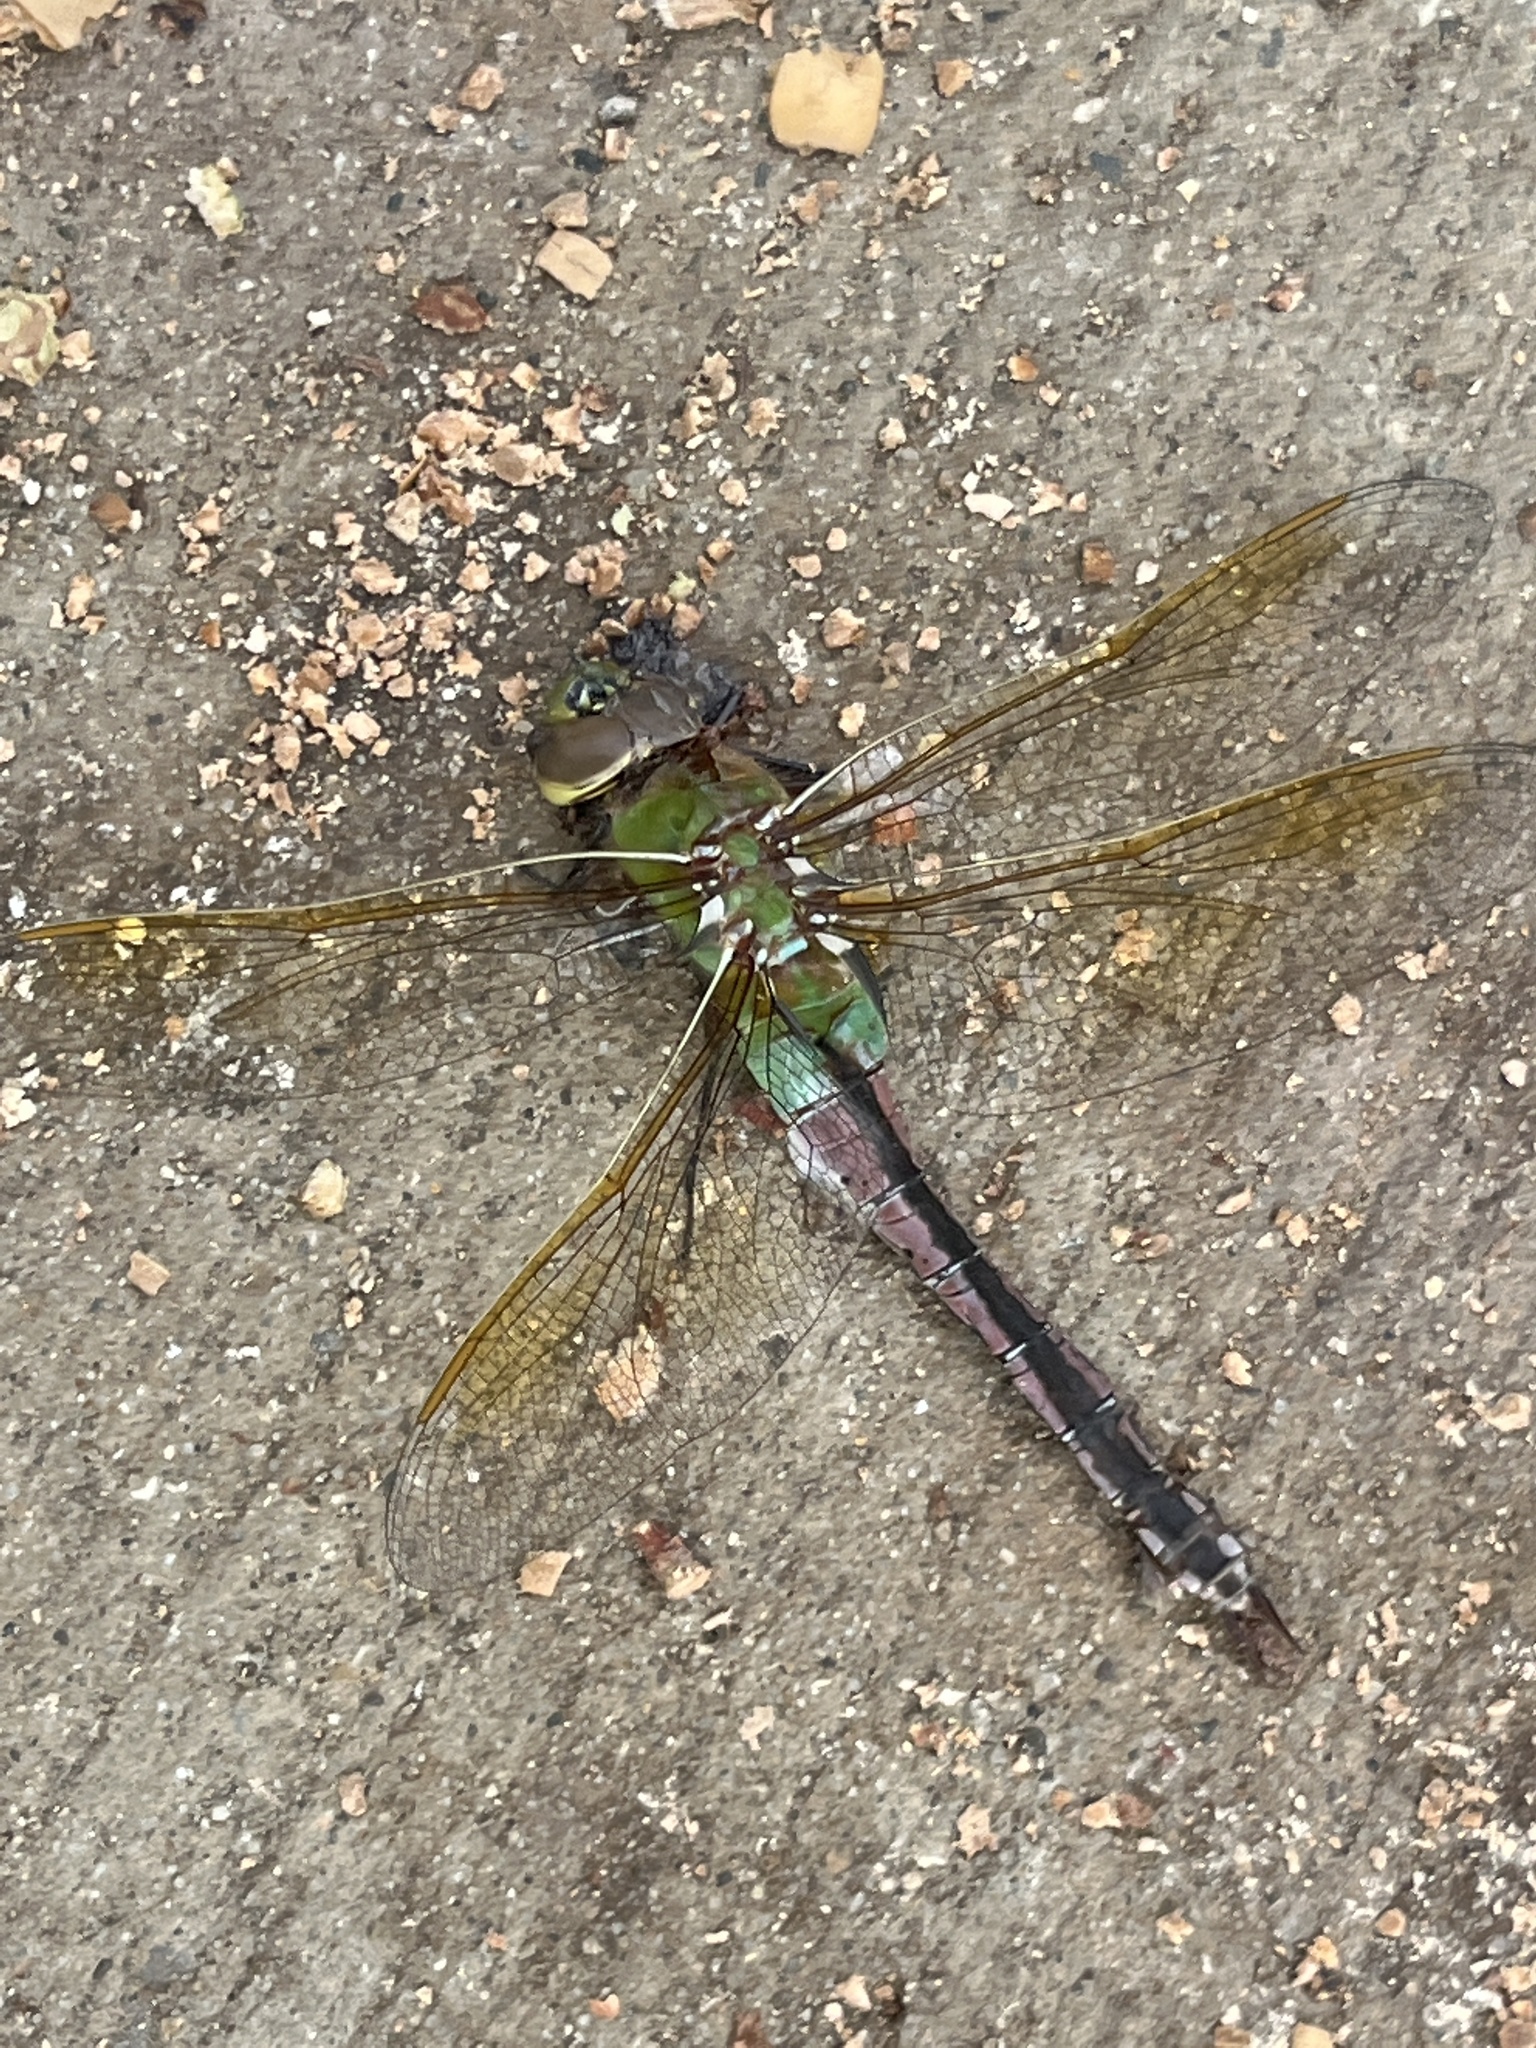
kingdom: Animalia
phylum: Arthropoda
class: Insecta
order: Odonata
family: Aeshnidae
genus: Anax
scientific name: Anax junius
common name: Common green darner
